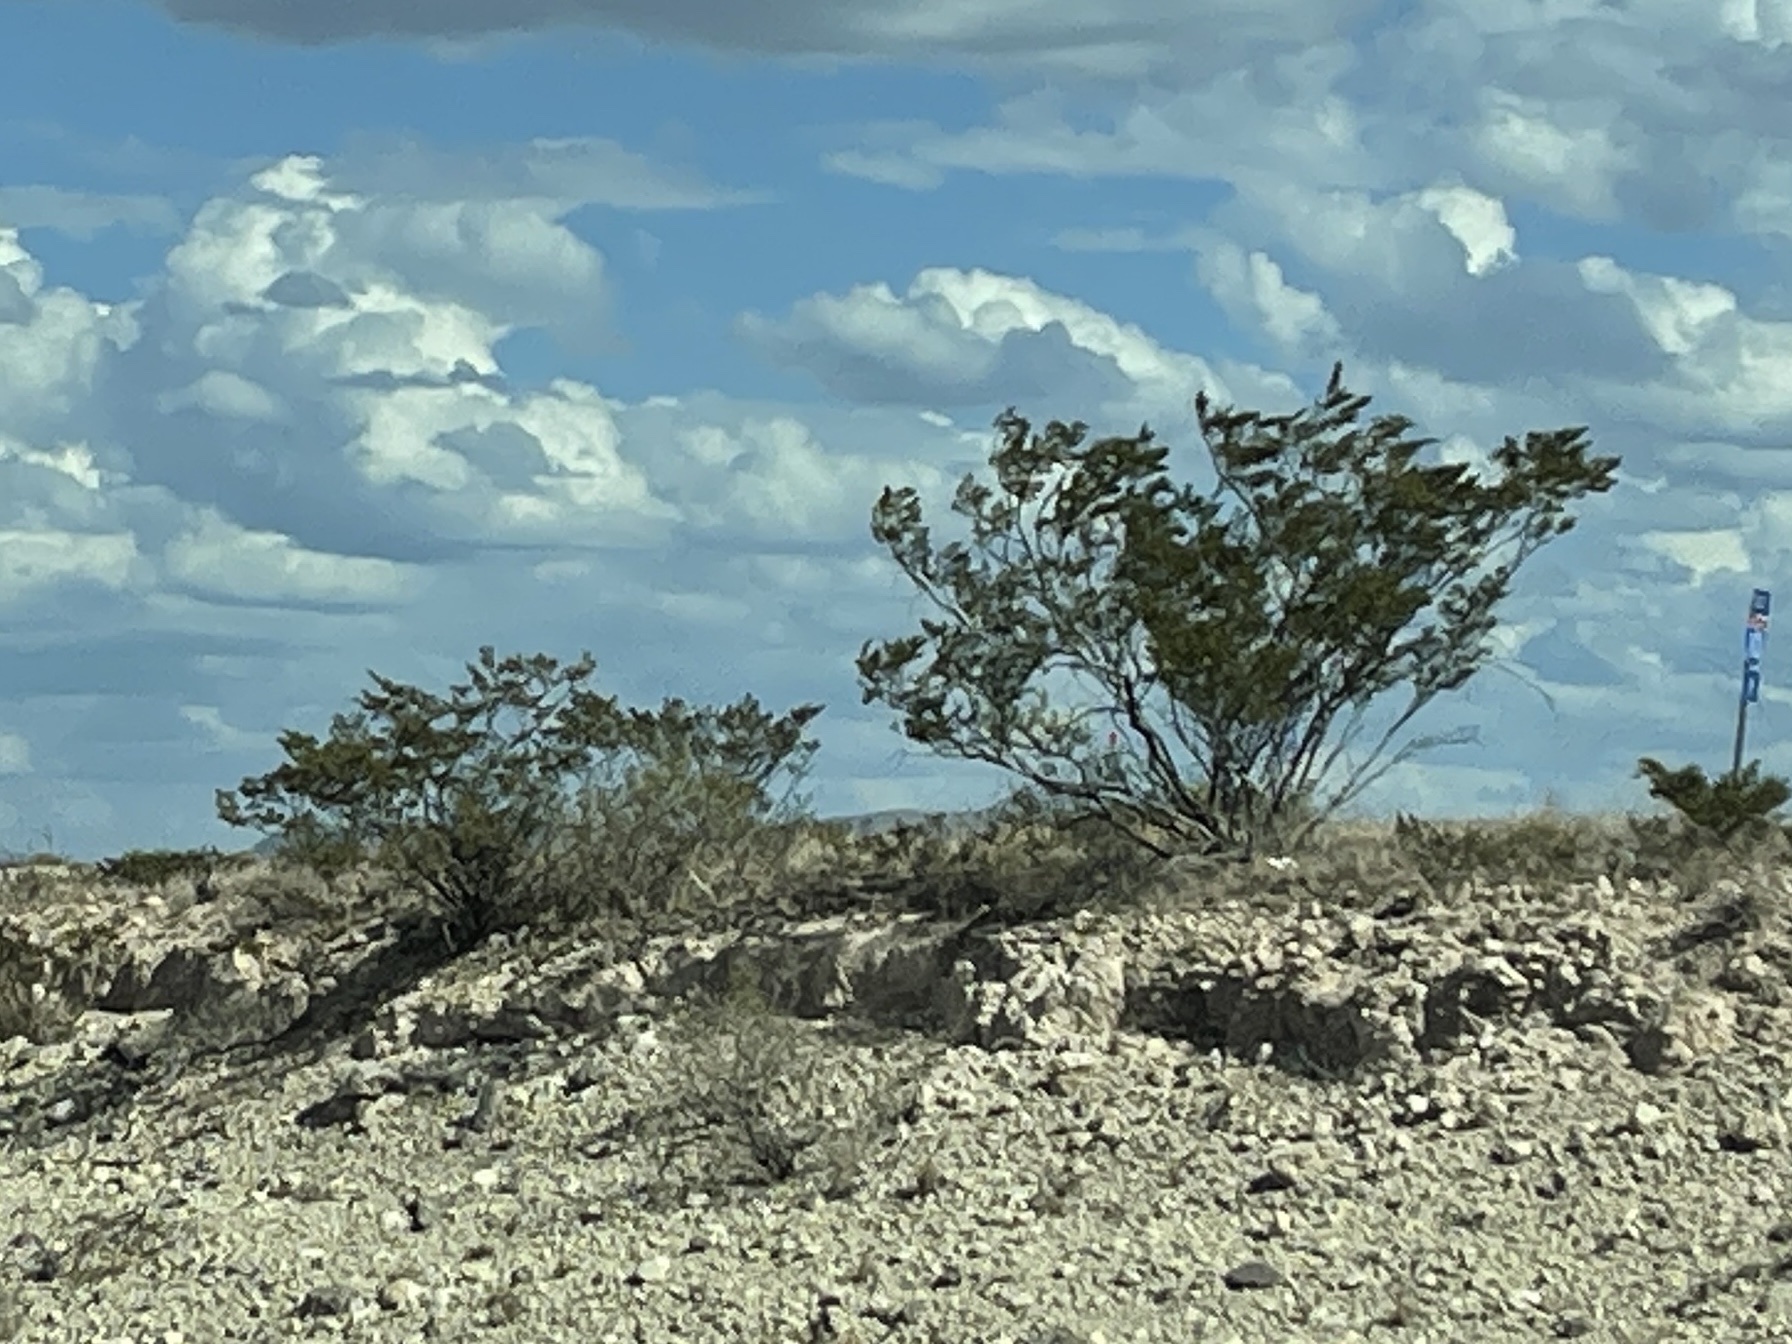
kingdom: Plantae
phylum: Tracheophyta
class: Magnoliopsida
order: Zygophyllales
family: Zygophyllaceae
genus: Larrea
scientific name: Larrea tridentata
